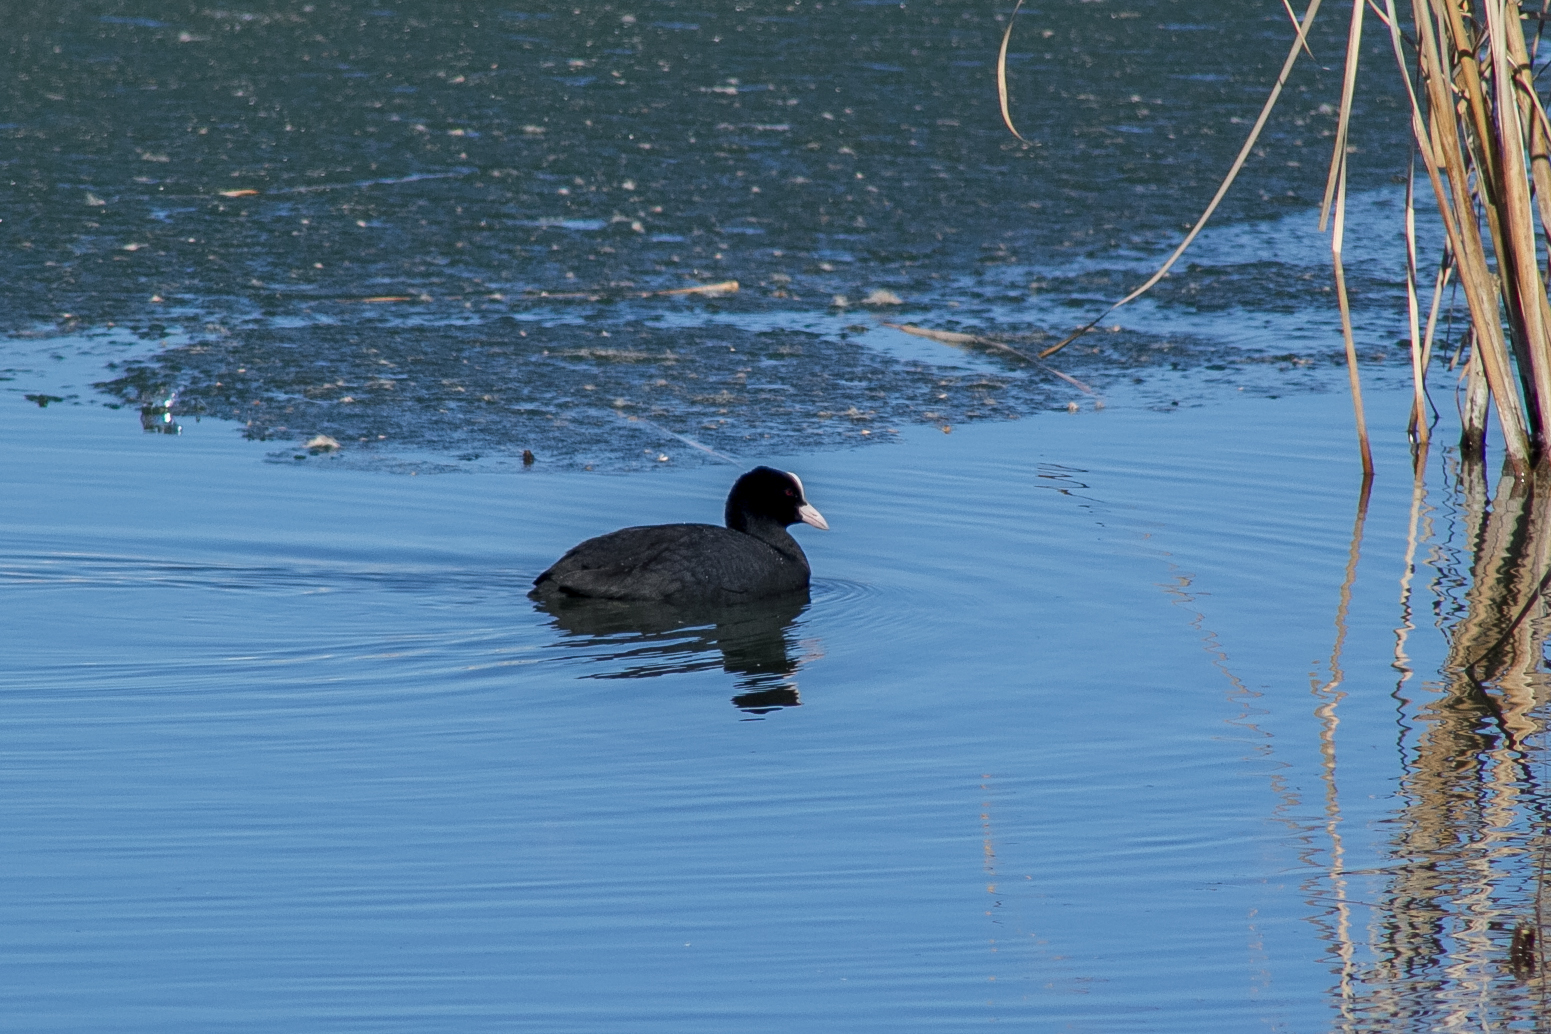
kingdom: Animalia
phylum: Chordata
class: Aves
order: Gruiformes
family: Rallidae
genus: Fulica
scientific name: Fulica atra
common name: Eurasian coot
